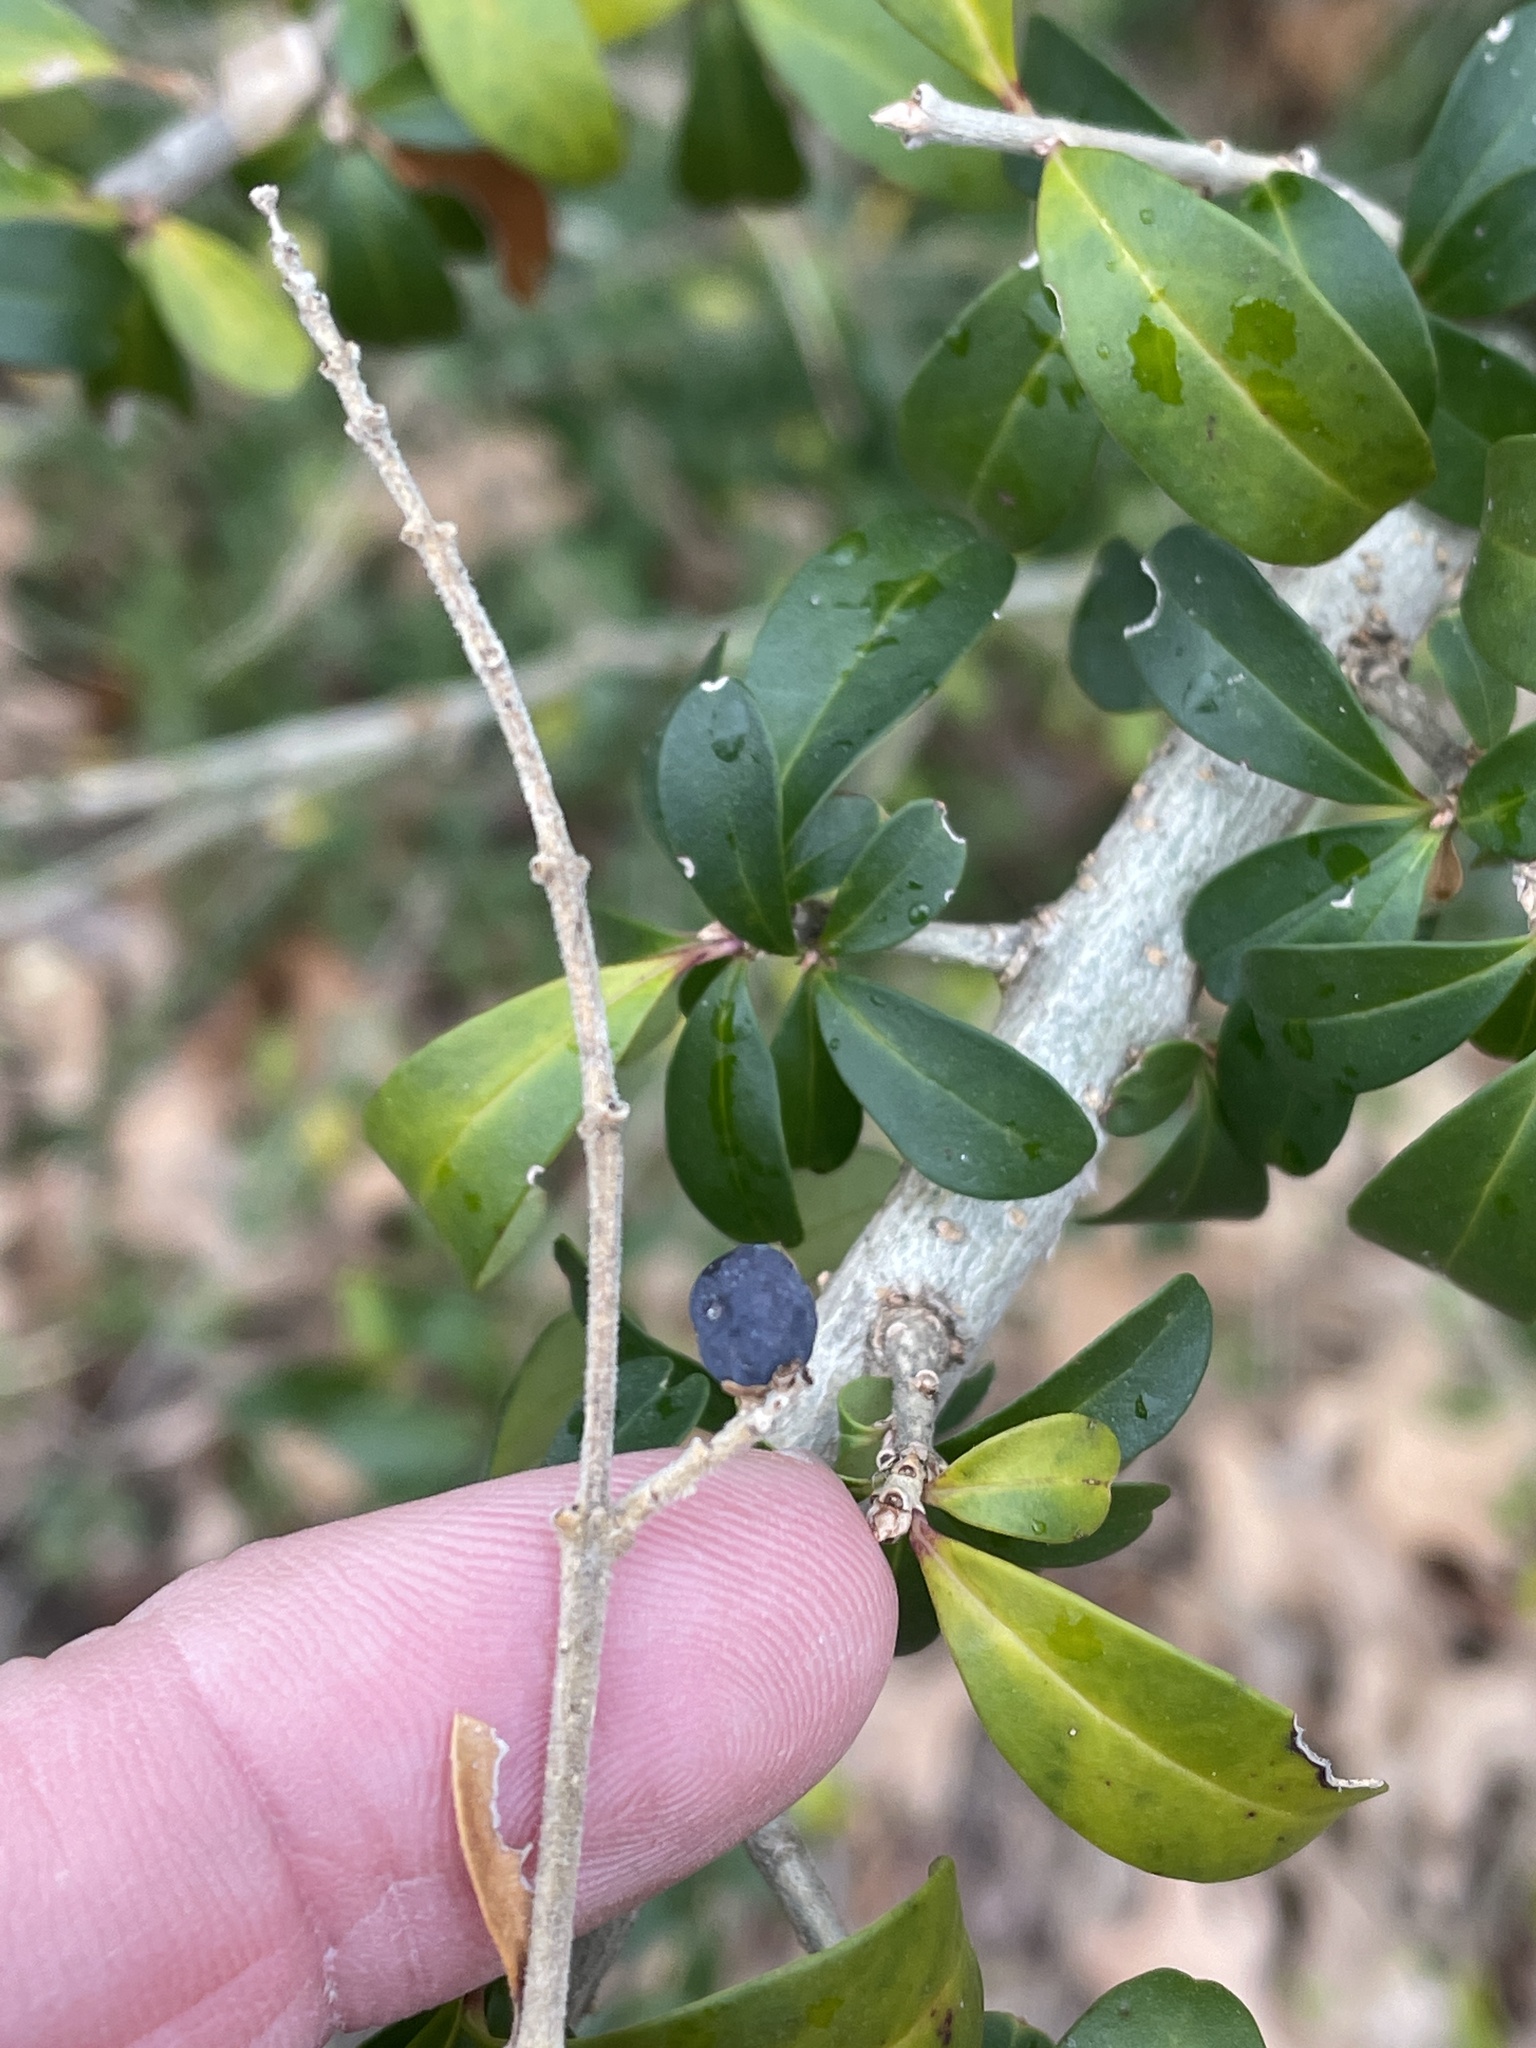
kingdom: Plantae
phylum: Tracheophyta
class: Magnoliopsida
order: Lamiales
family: Oleaceae
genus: Ligustrum
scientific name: Ligustrum quihoui
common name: Waxyleaf privet
